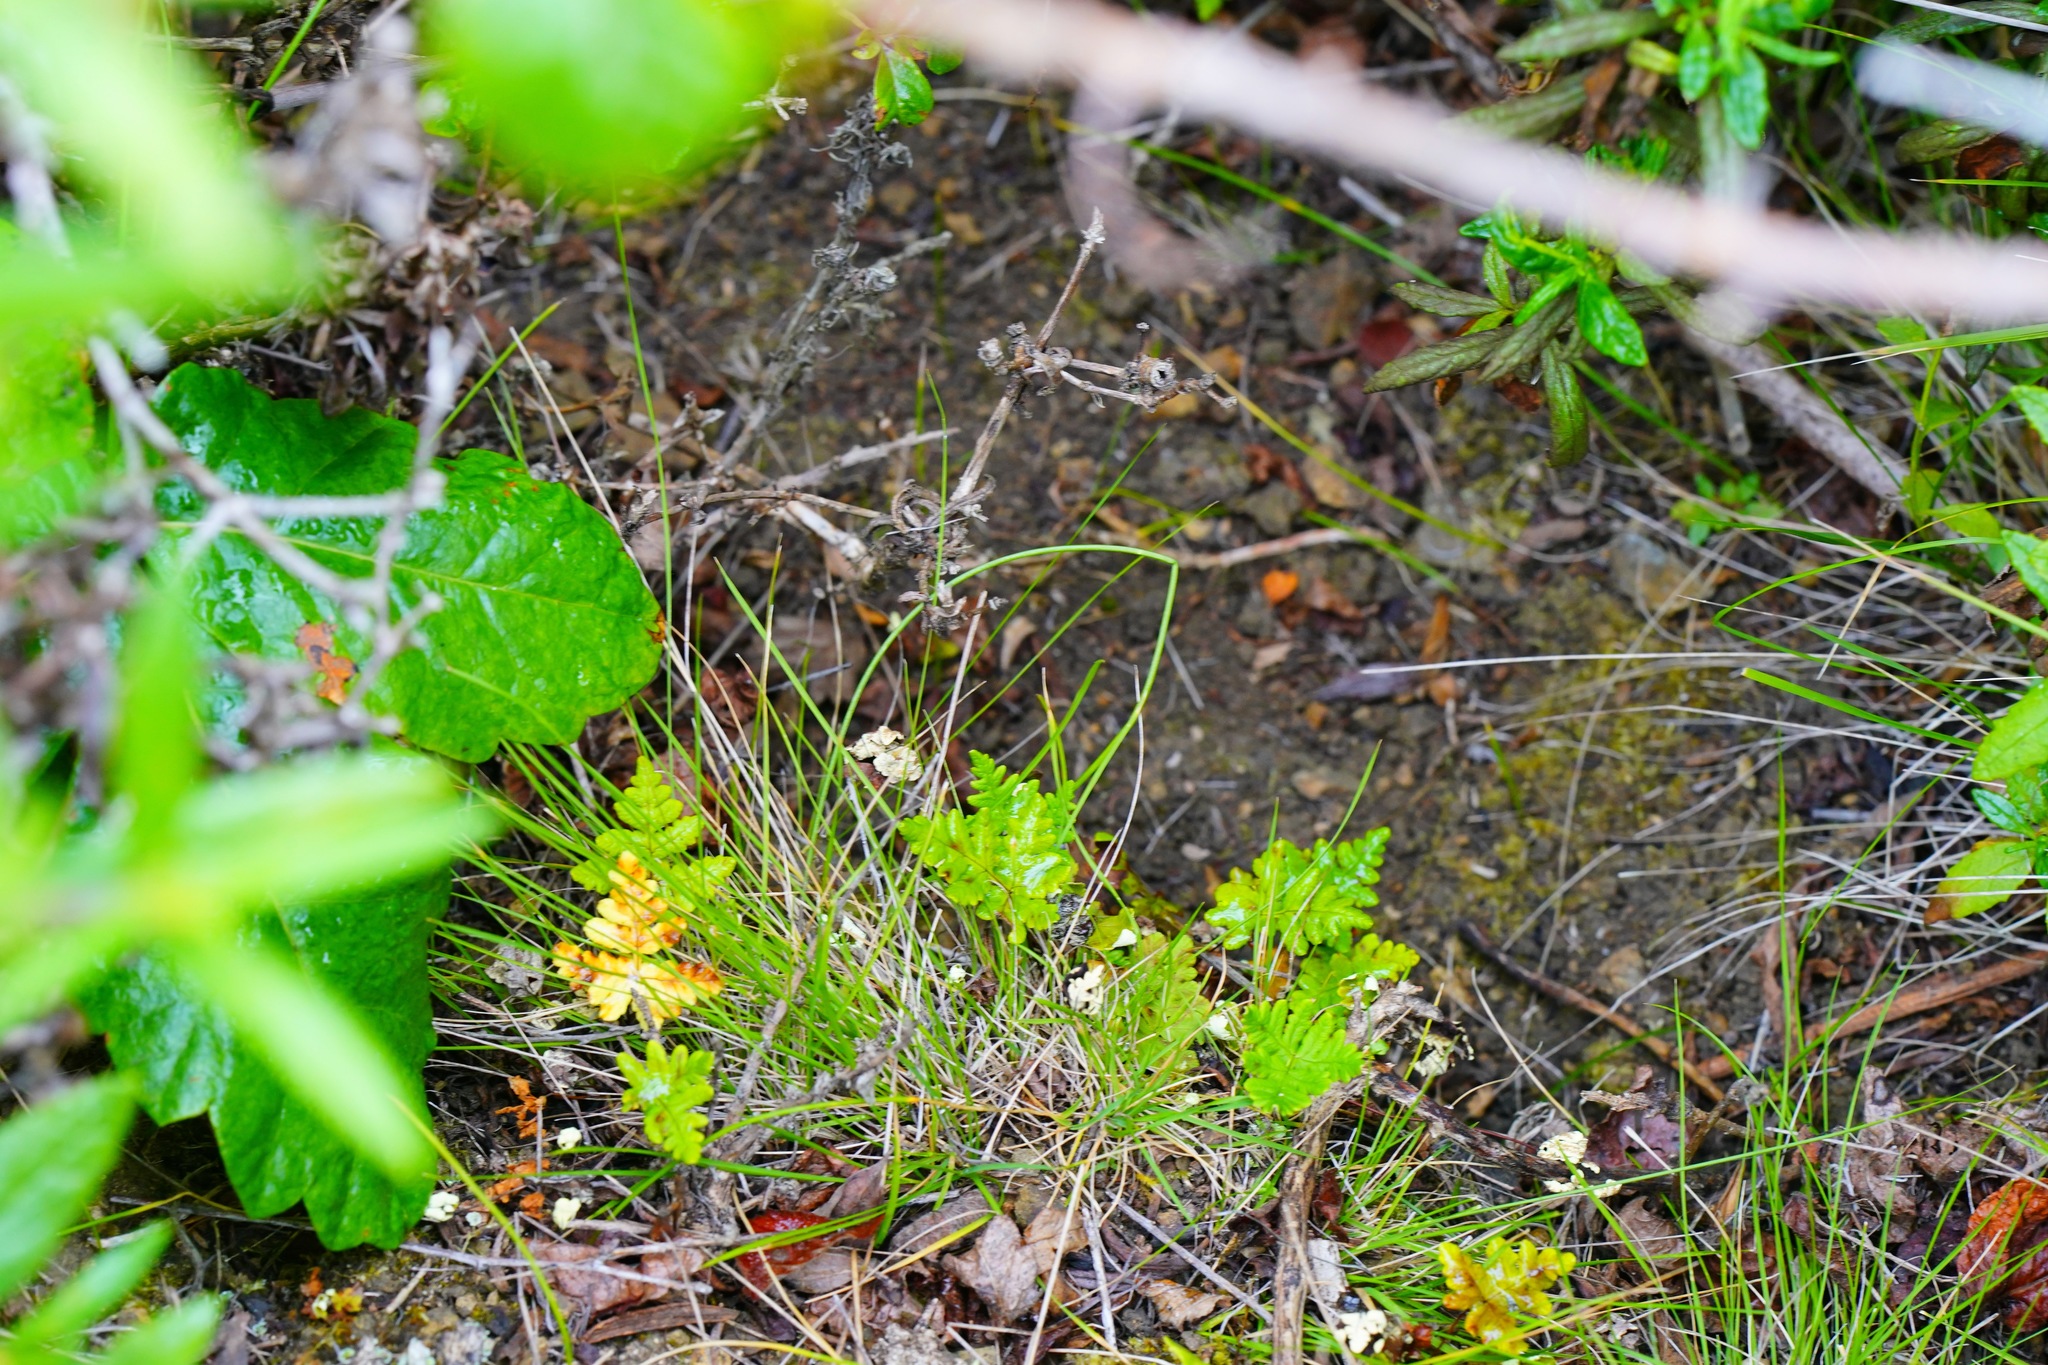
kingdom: Plantae
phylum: Tracheophyta
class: Polypodiopsida
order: Polypodiales
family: Pteridaceae
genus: Pentagramma
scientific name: Pentagramma triangularis
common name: Gold fern
